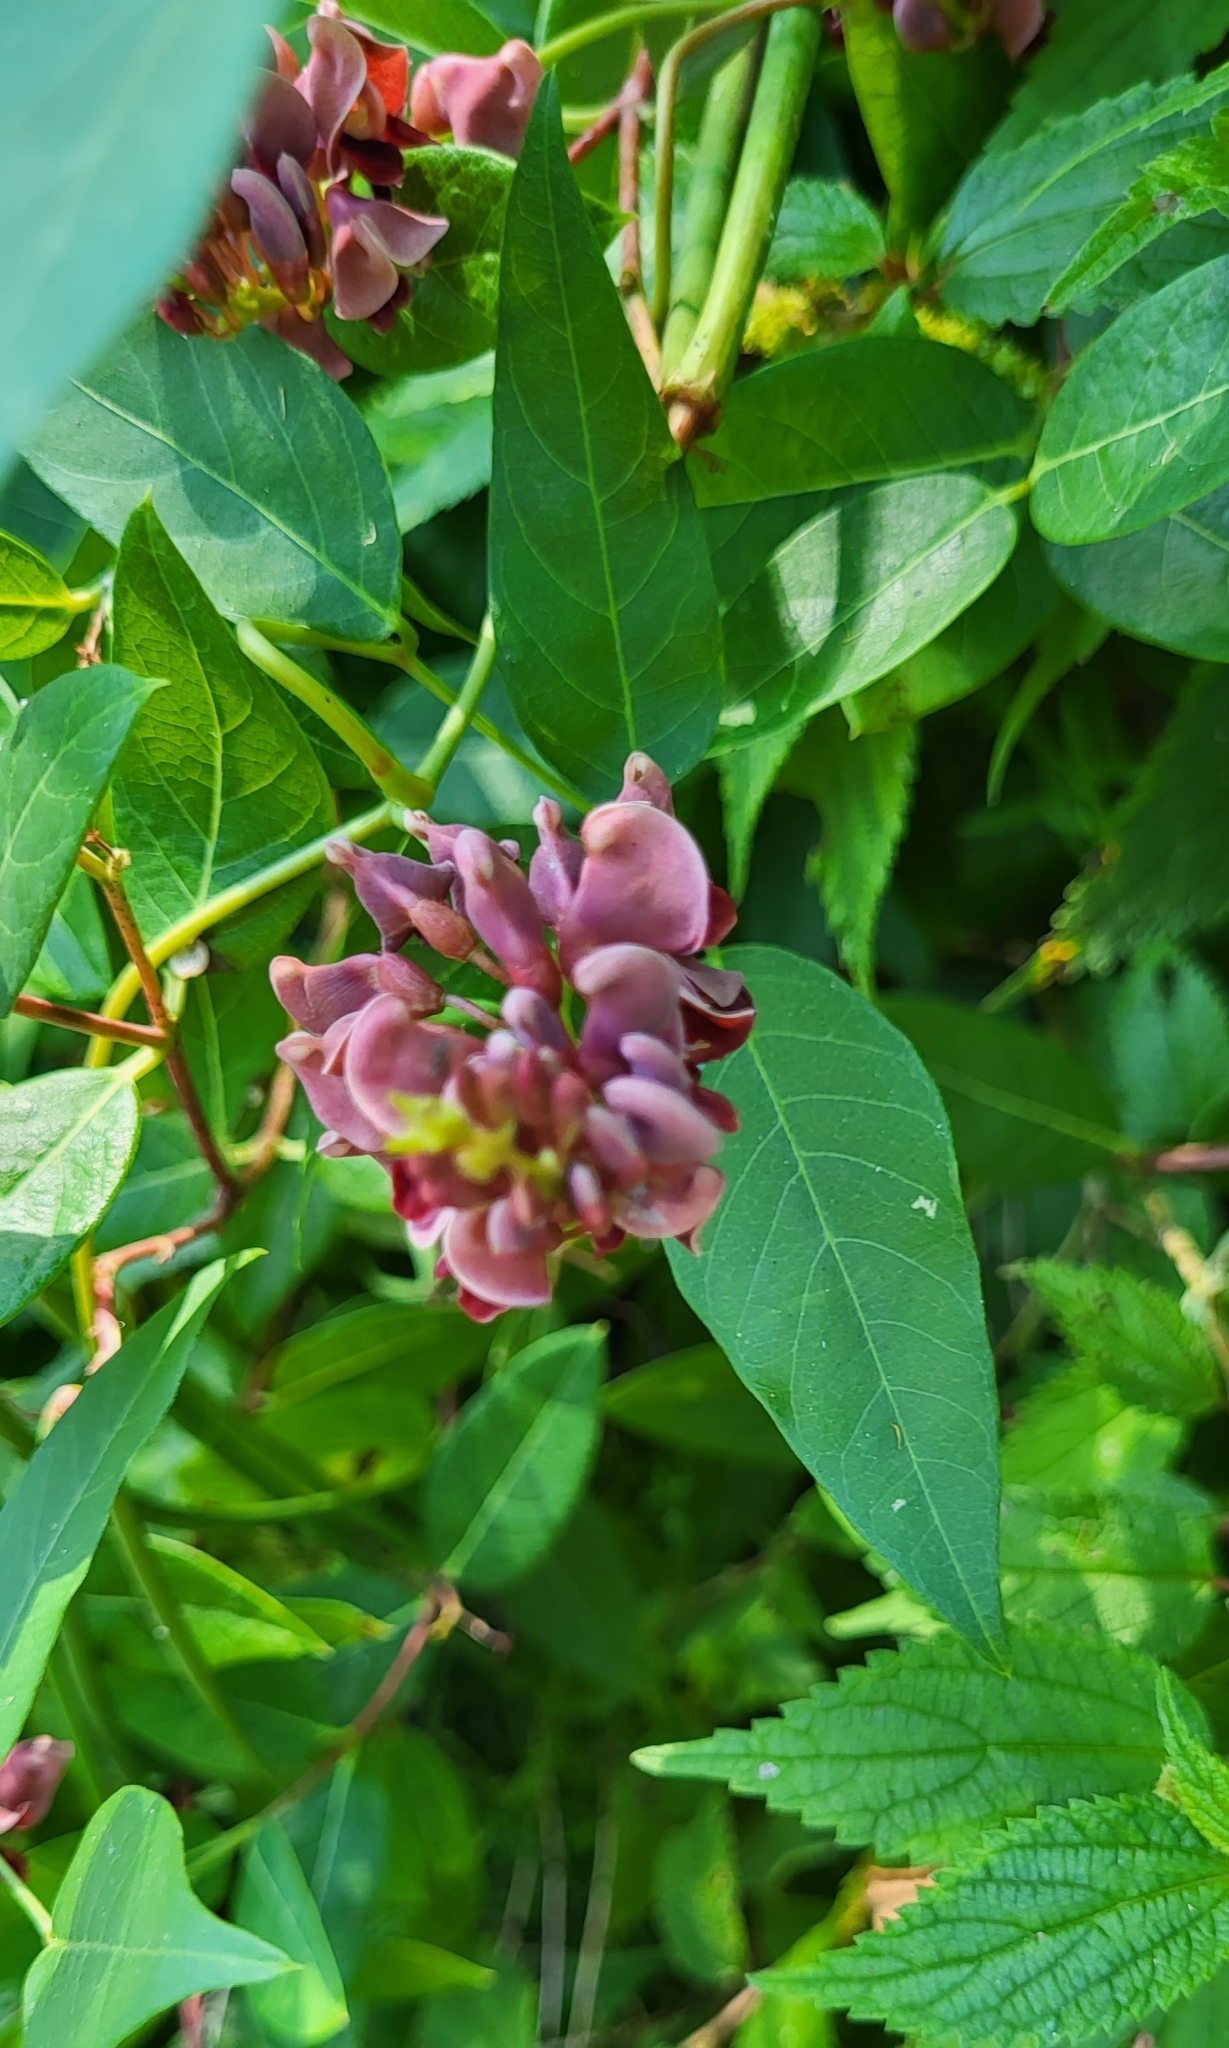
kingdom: Plantae
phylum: Tracheophyta
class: Magnoliopsida
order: Fabales
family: Fabaceae
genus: Apios
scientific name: Apios americana
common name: American potato-bean
